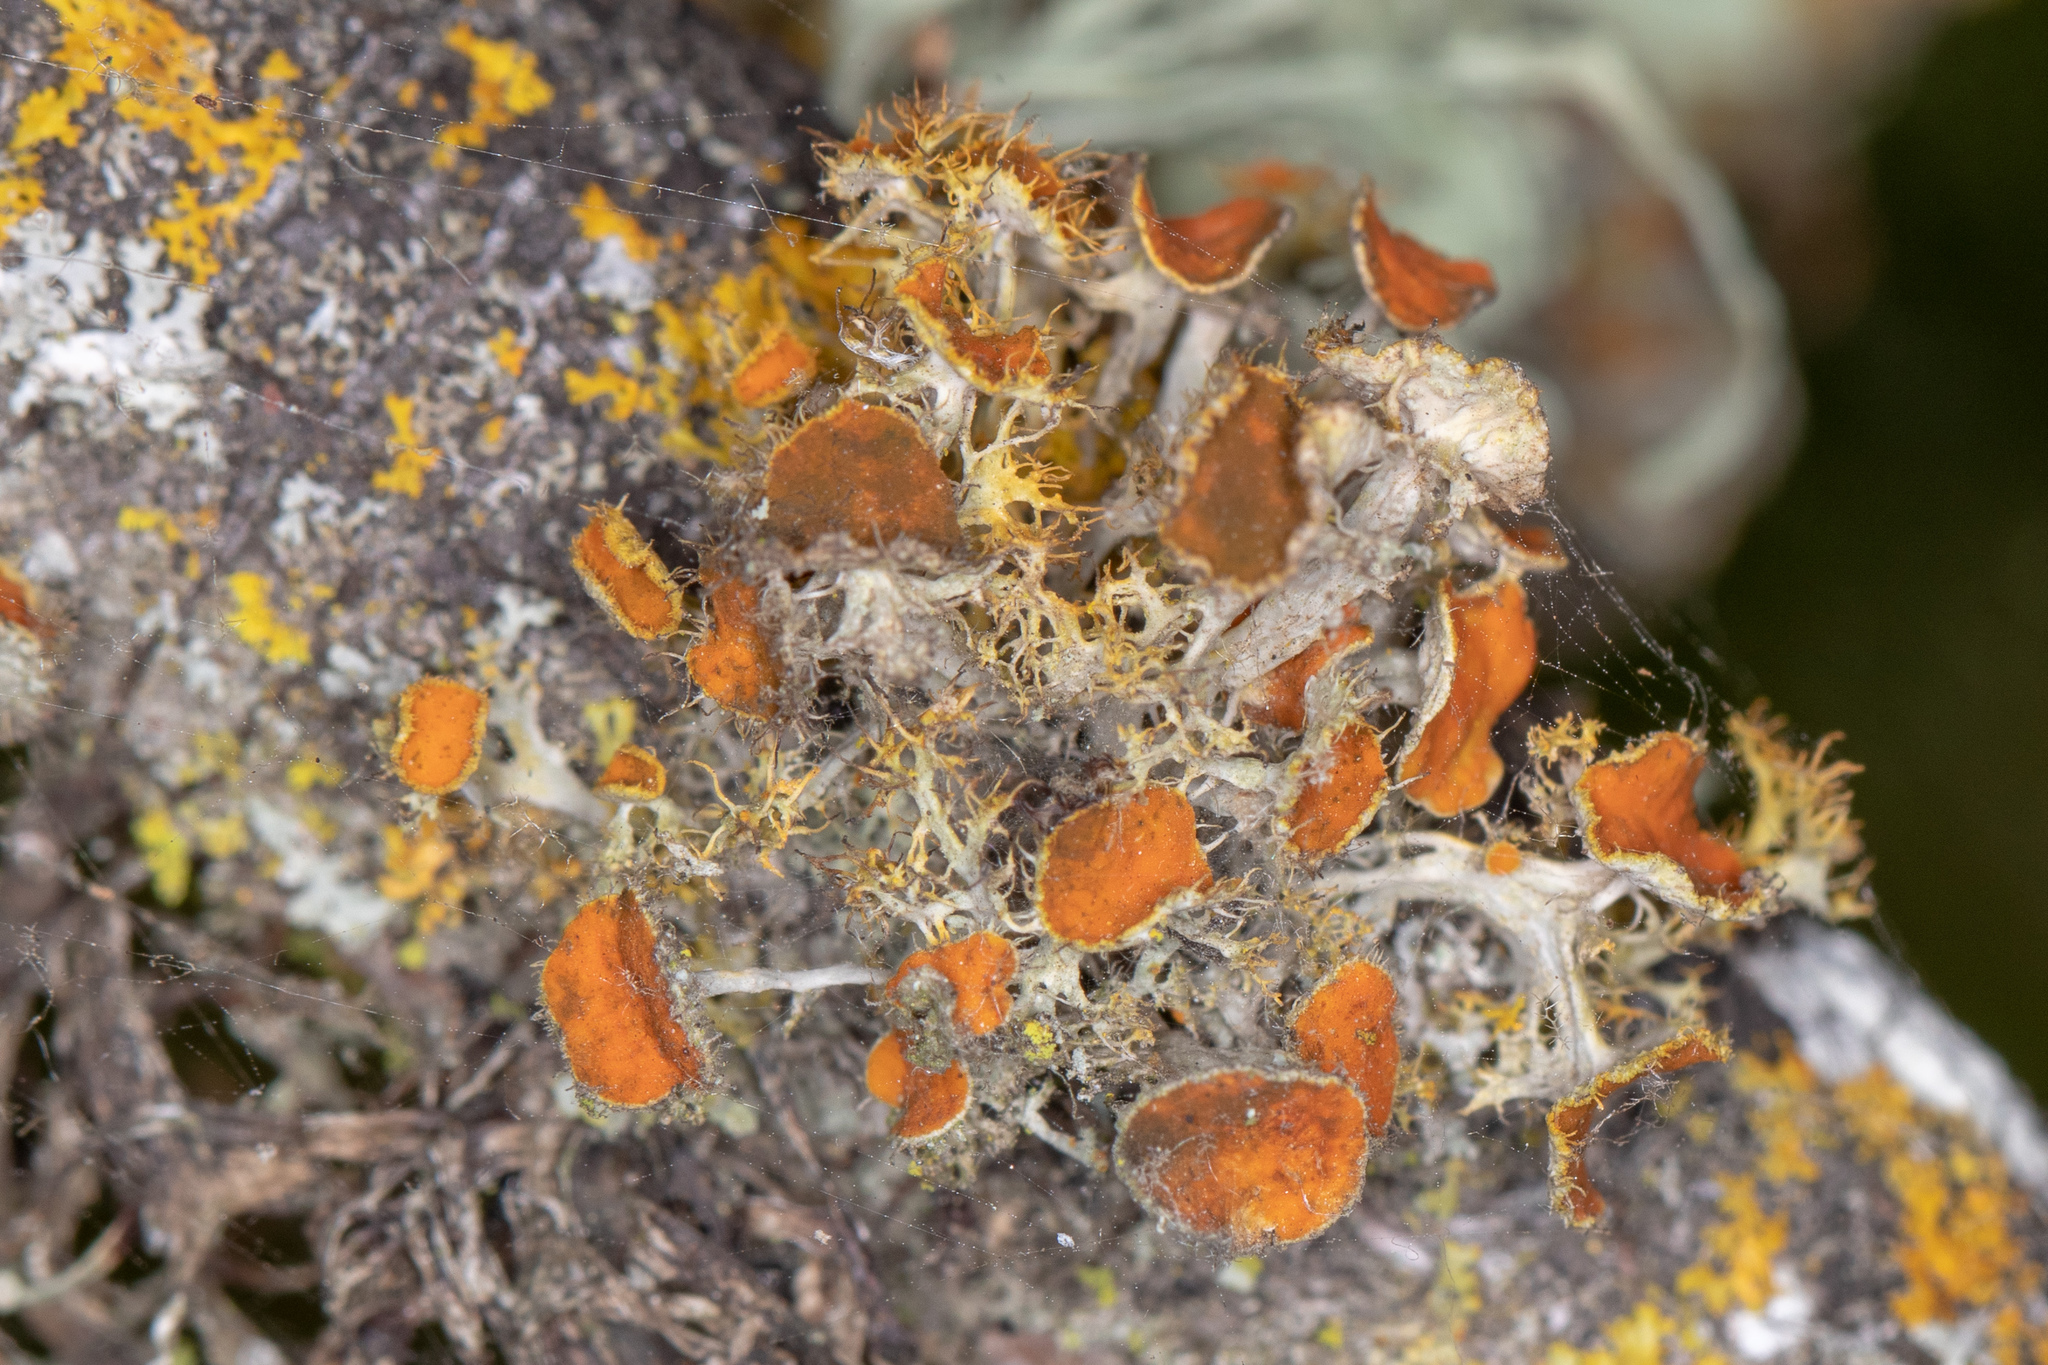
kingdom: Fungi
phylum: Ascomycota
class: Lecanoromycetes
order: Teloschistales
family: Teloschistaceae
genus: Niorma
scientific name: Niorma chrysophthalma
